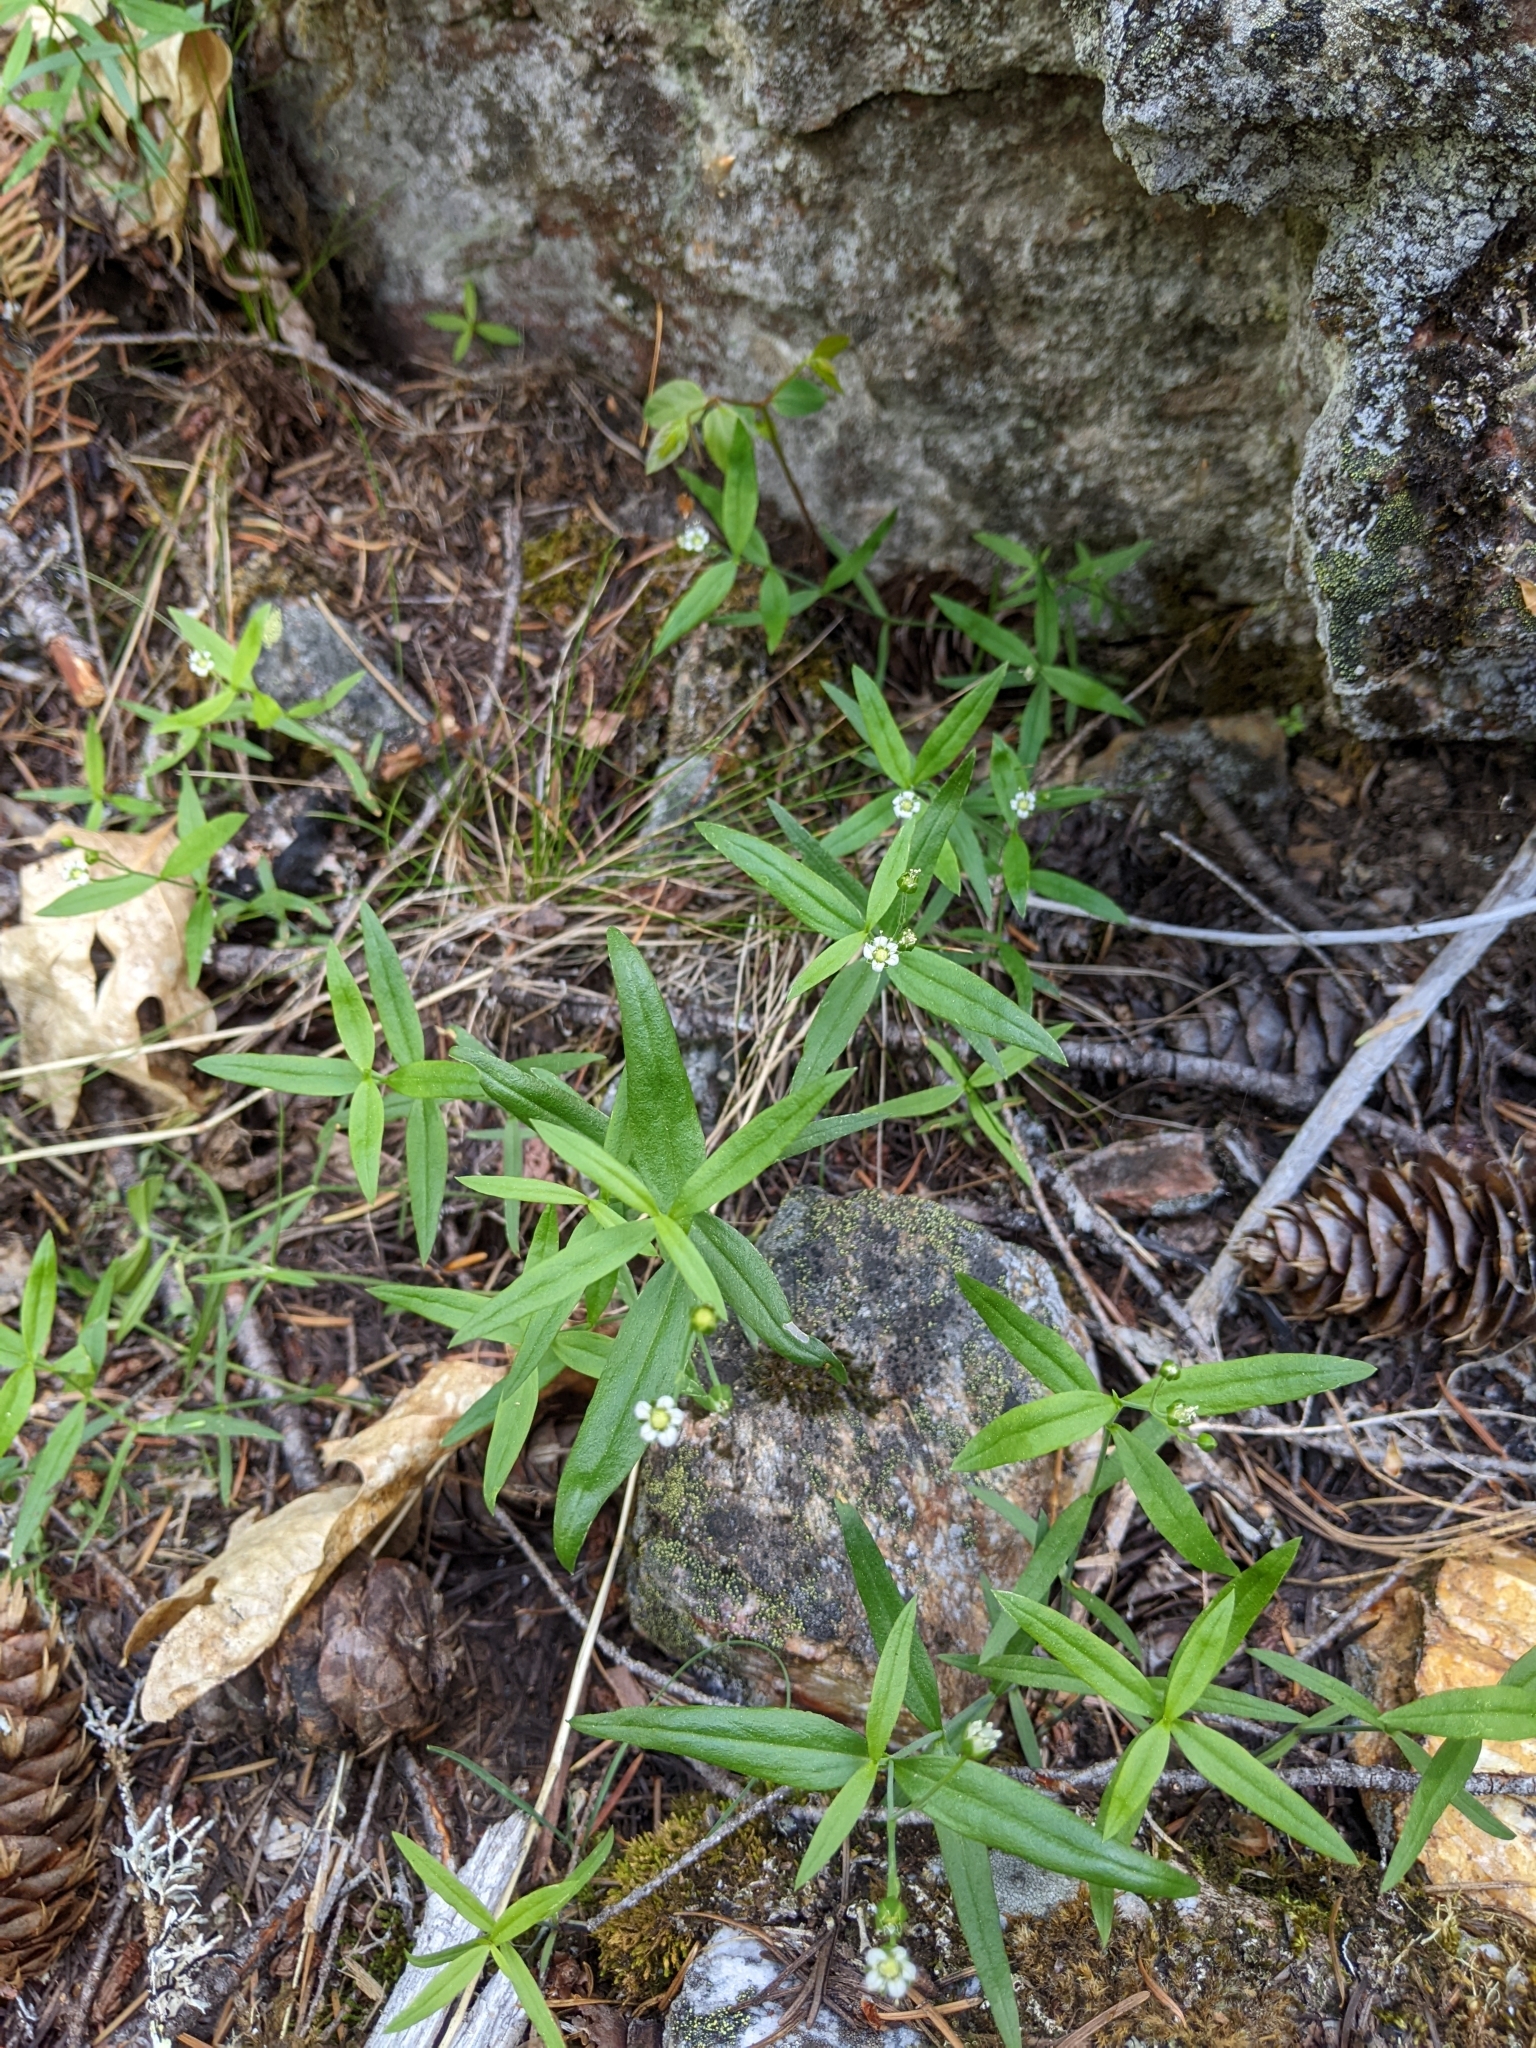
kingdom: Plantae
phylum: Tracheophyta
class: Magnoliopsida
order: Caryophyllales
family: Caryophyllaceae
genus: Moehringia
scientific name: Moehringia macrophylla
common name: Big-leaf sandwort
